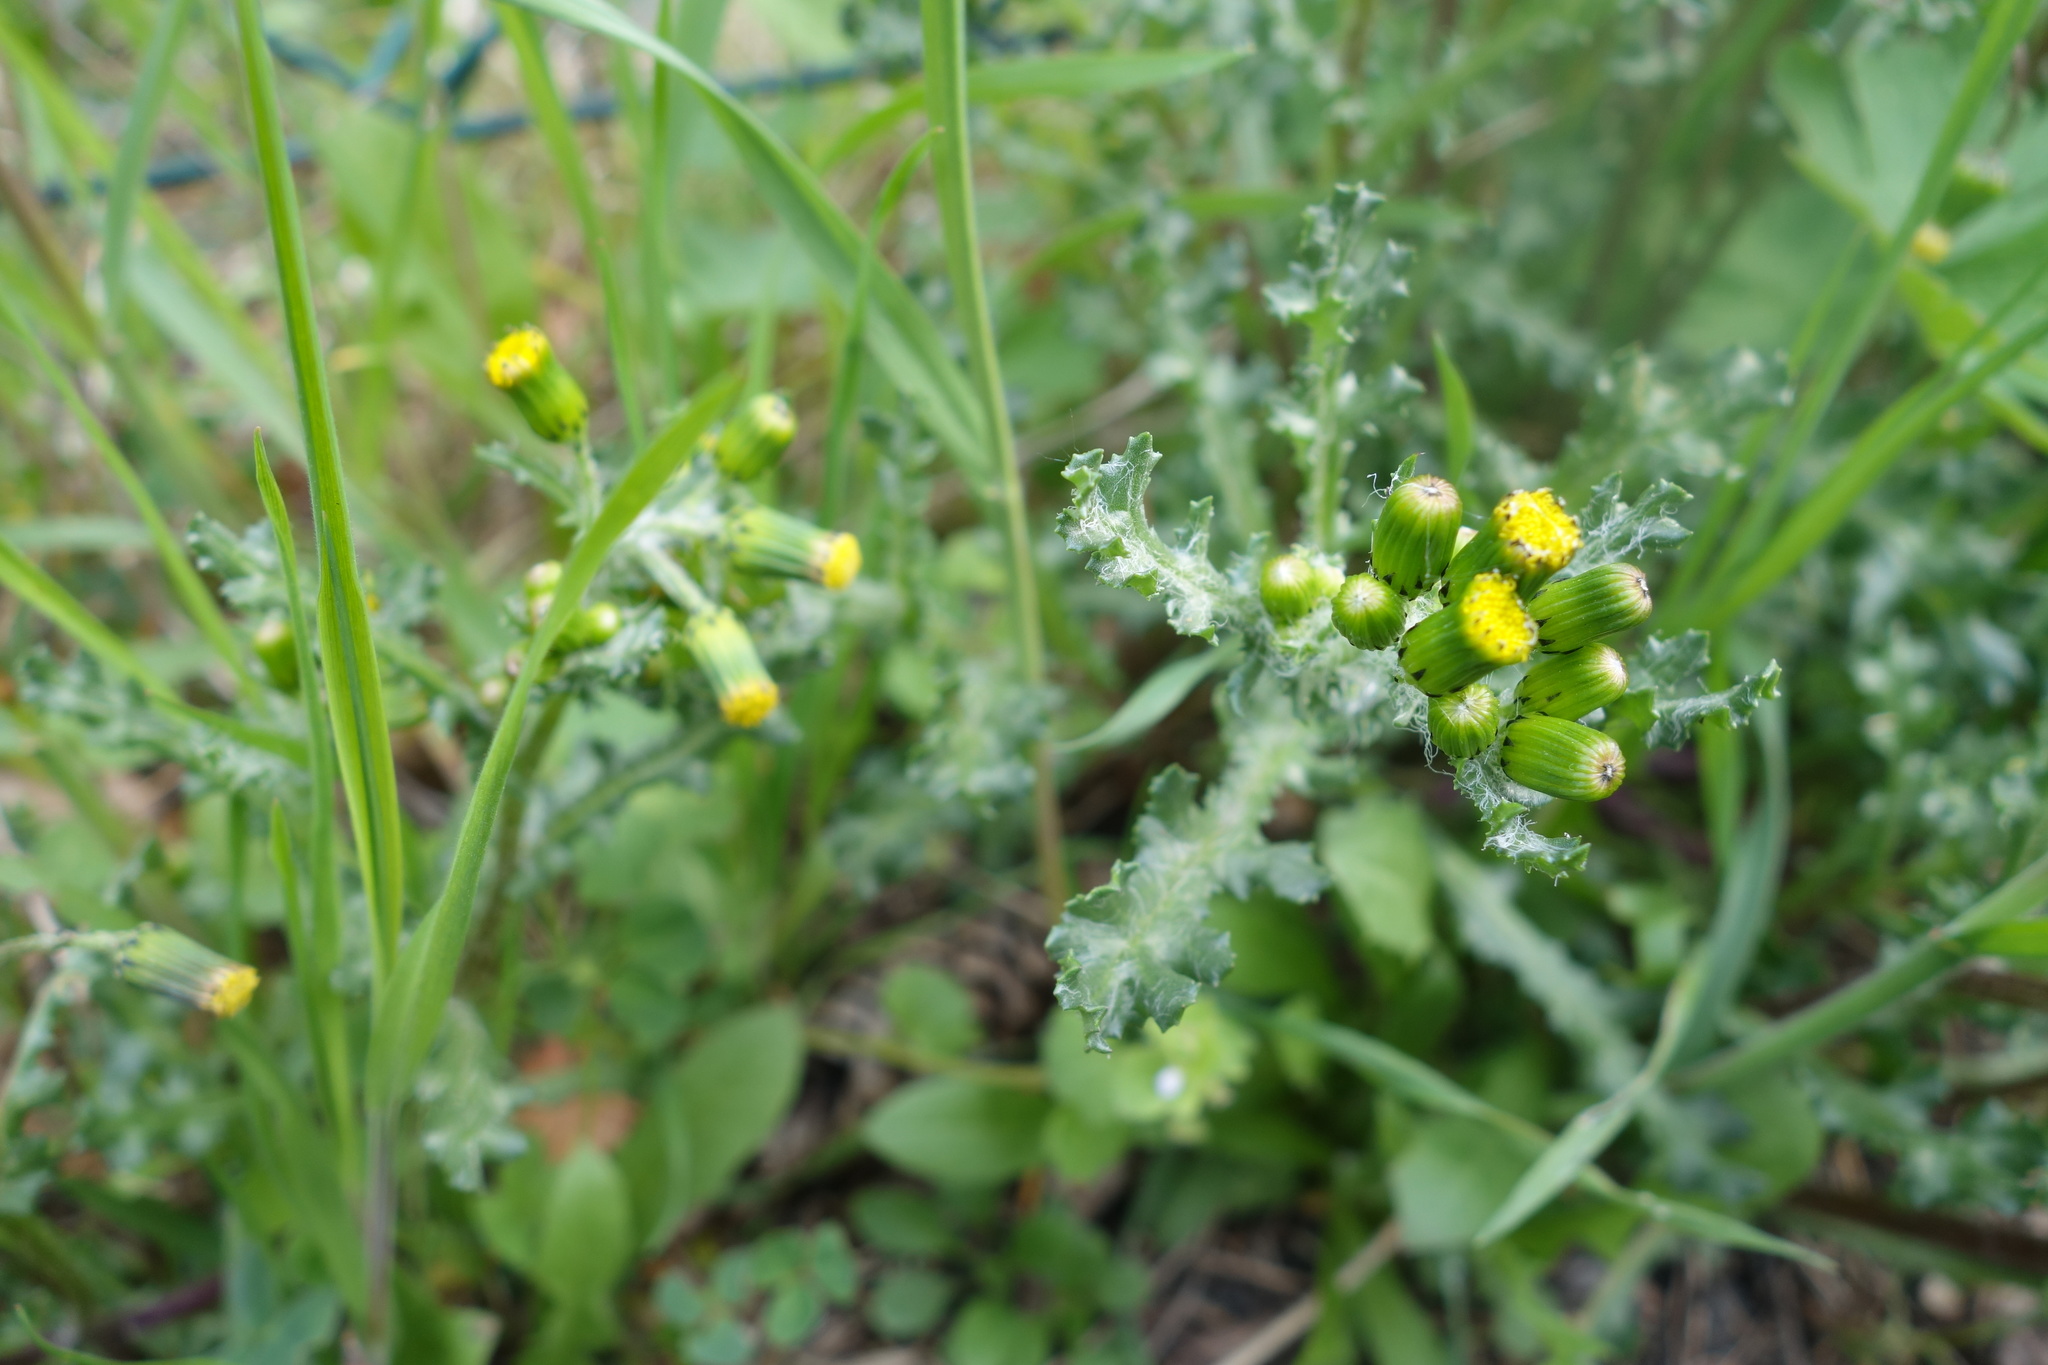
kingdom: Plantae
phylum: Tracheophyta
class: Magnoliopsida
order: Asterales
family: Asteraceae
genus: Senecio
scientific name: Senecio vulgaris
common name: Old-man-in-the-spring
